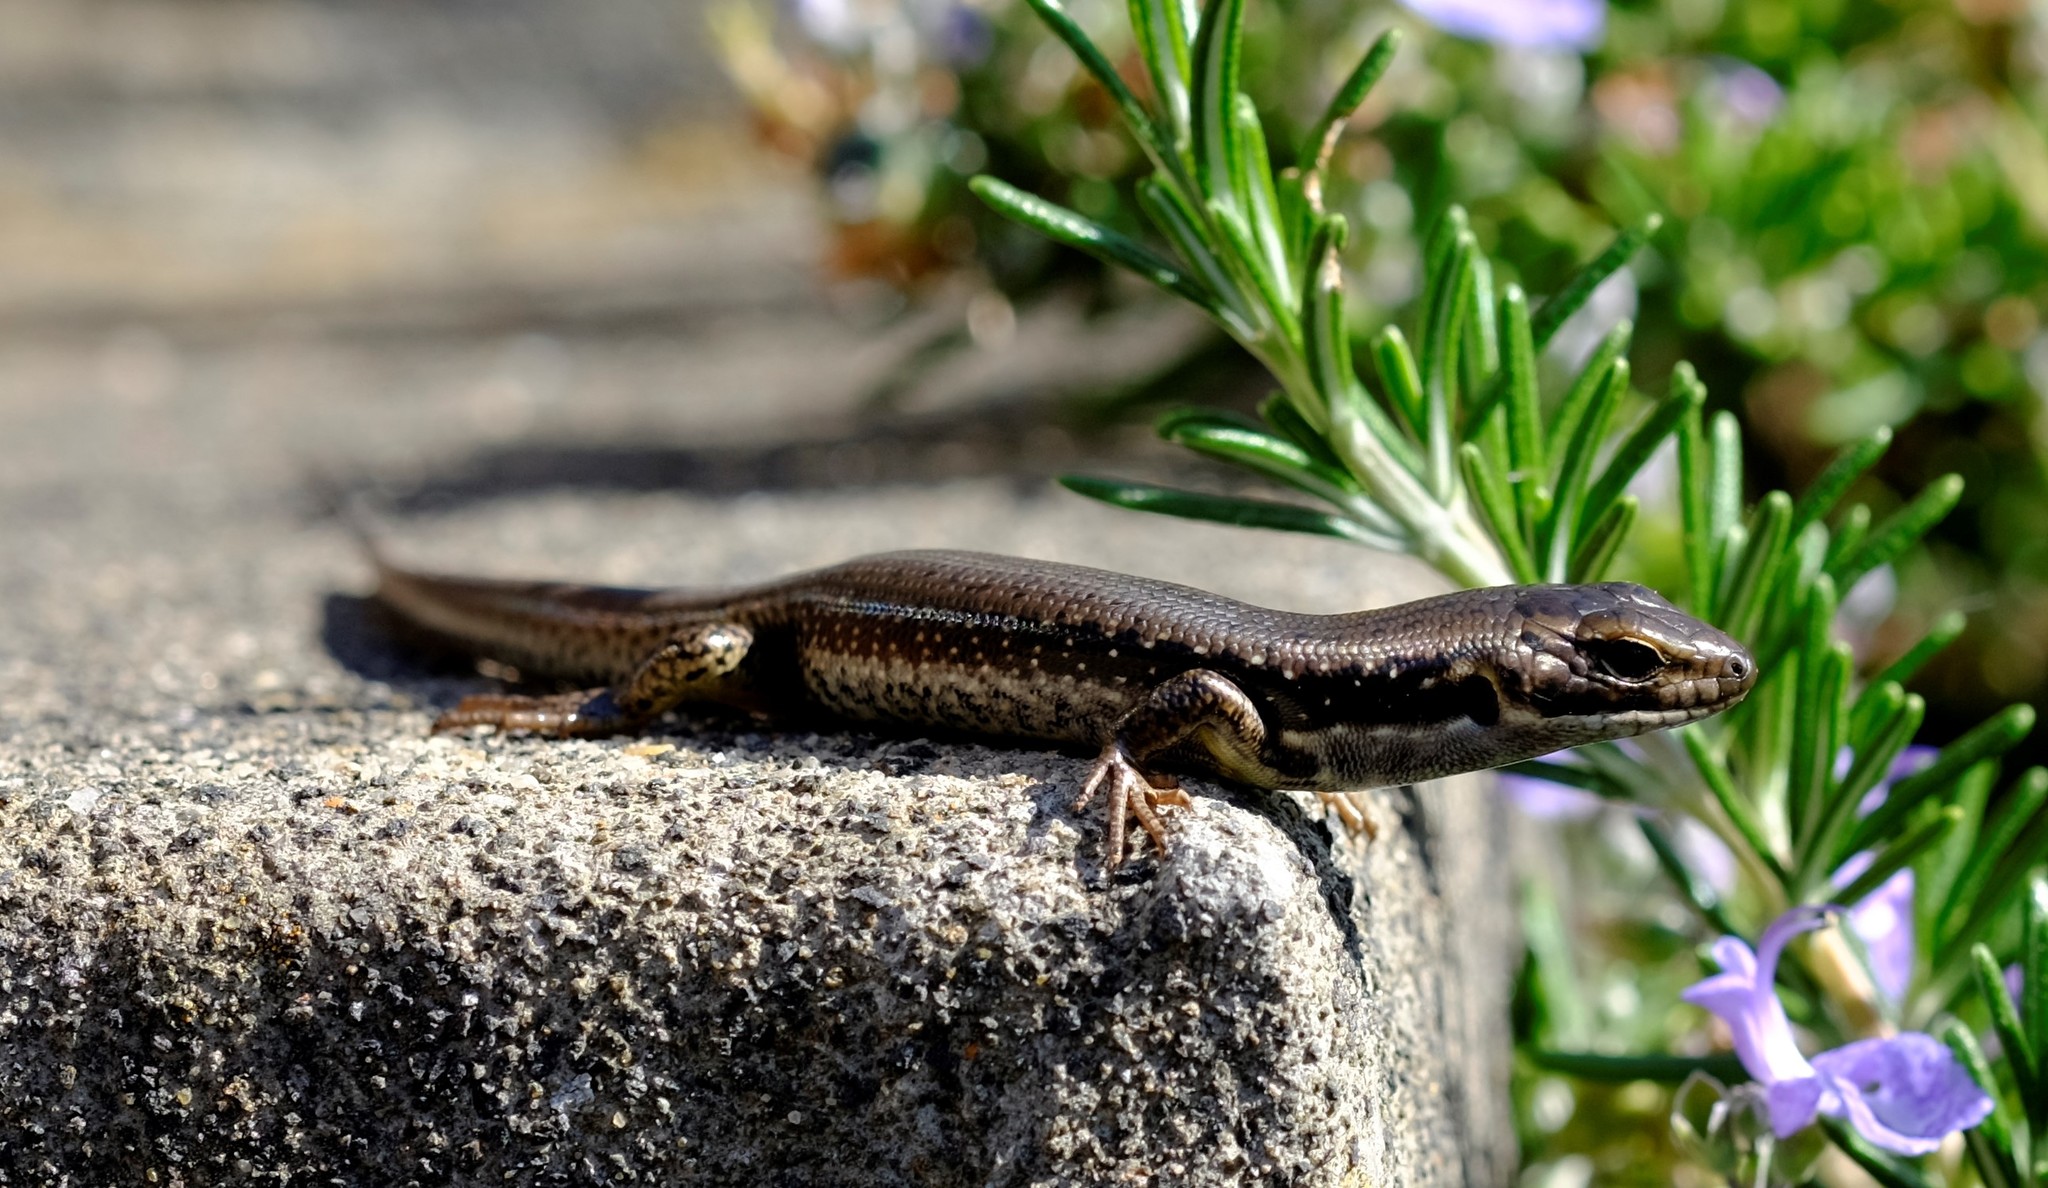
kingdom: Animalia
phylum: Chordata
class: Squamata
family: Scincidae
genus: Eulamprus
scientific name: Eulamprus tympanum
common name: Cool-temperate water-skink
